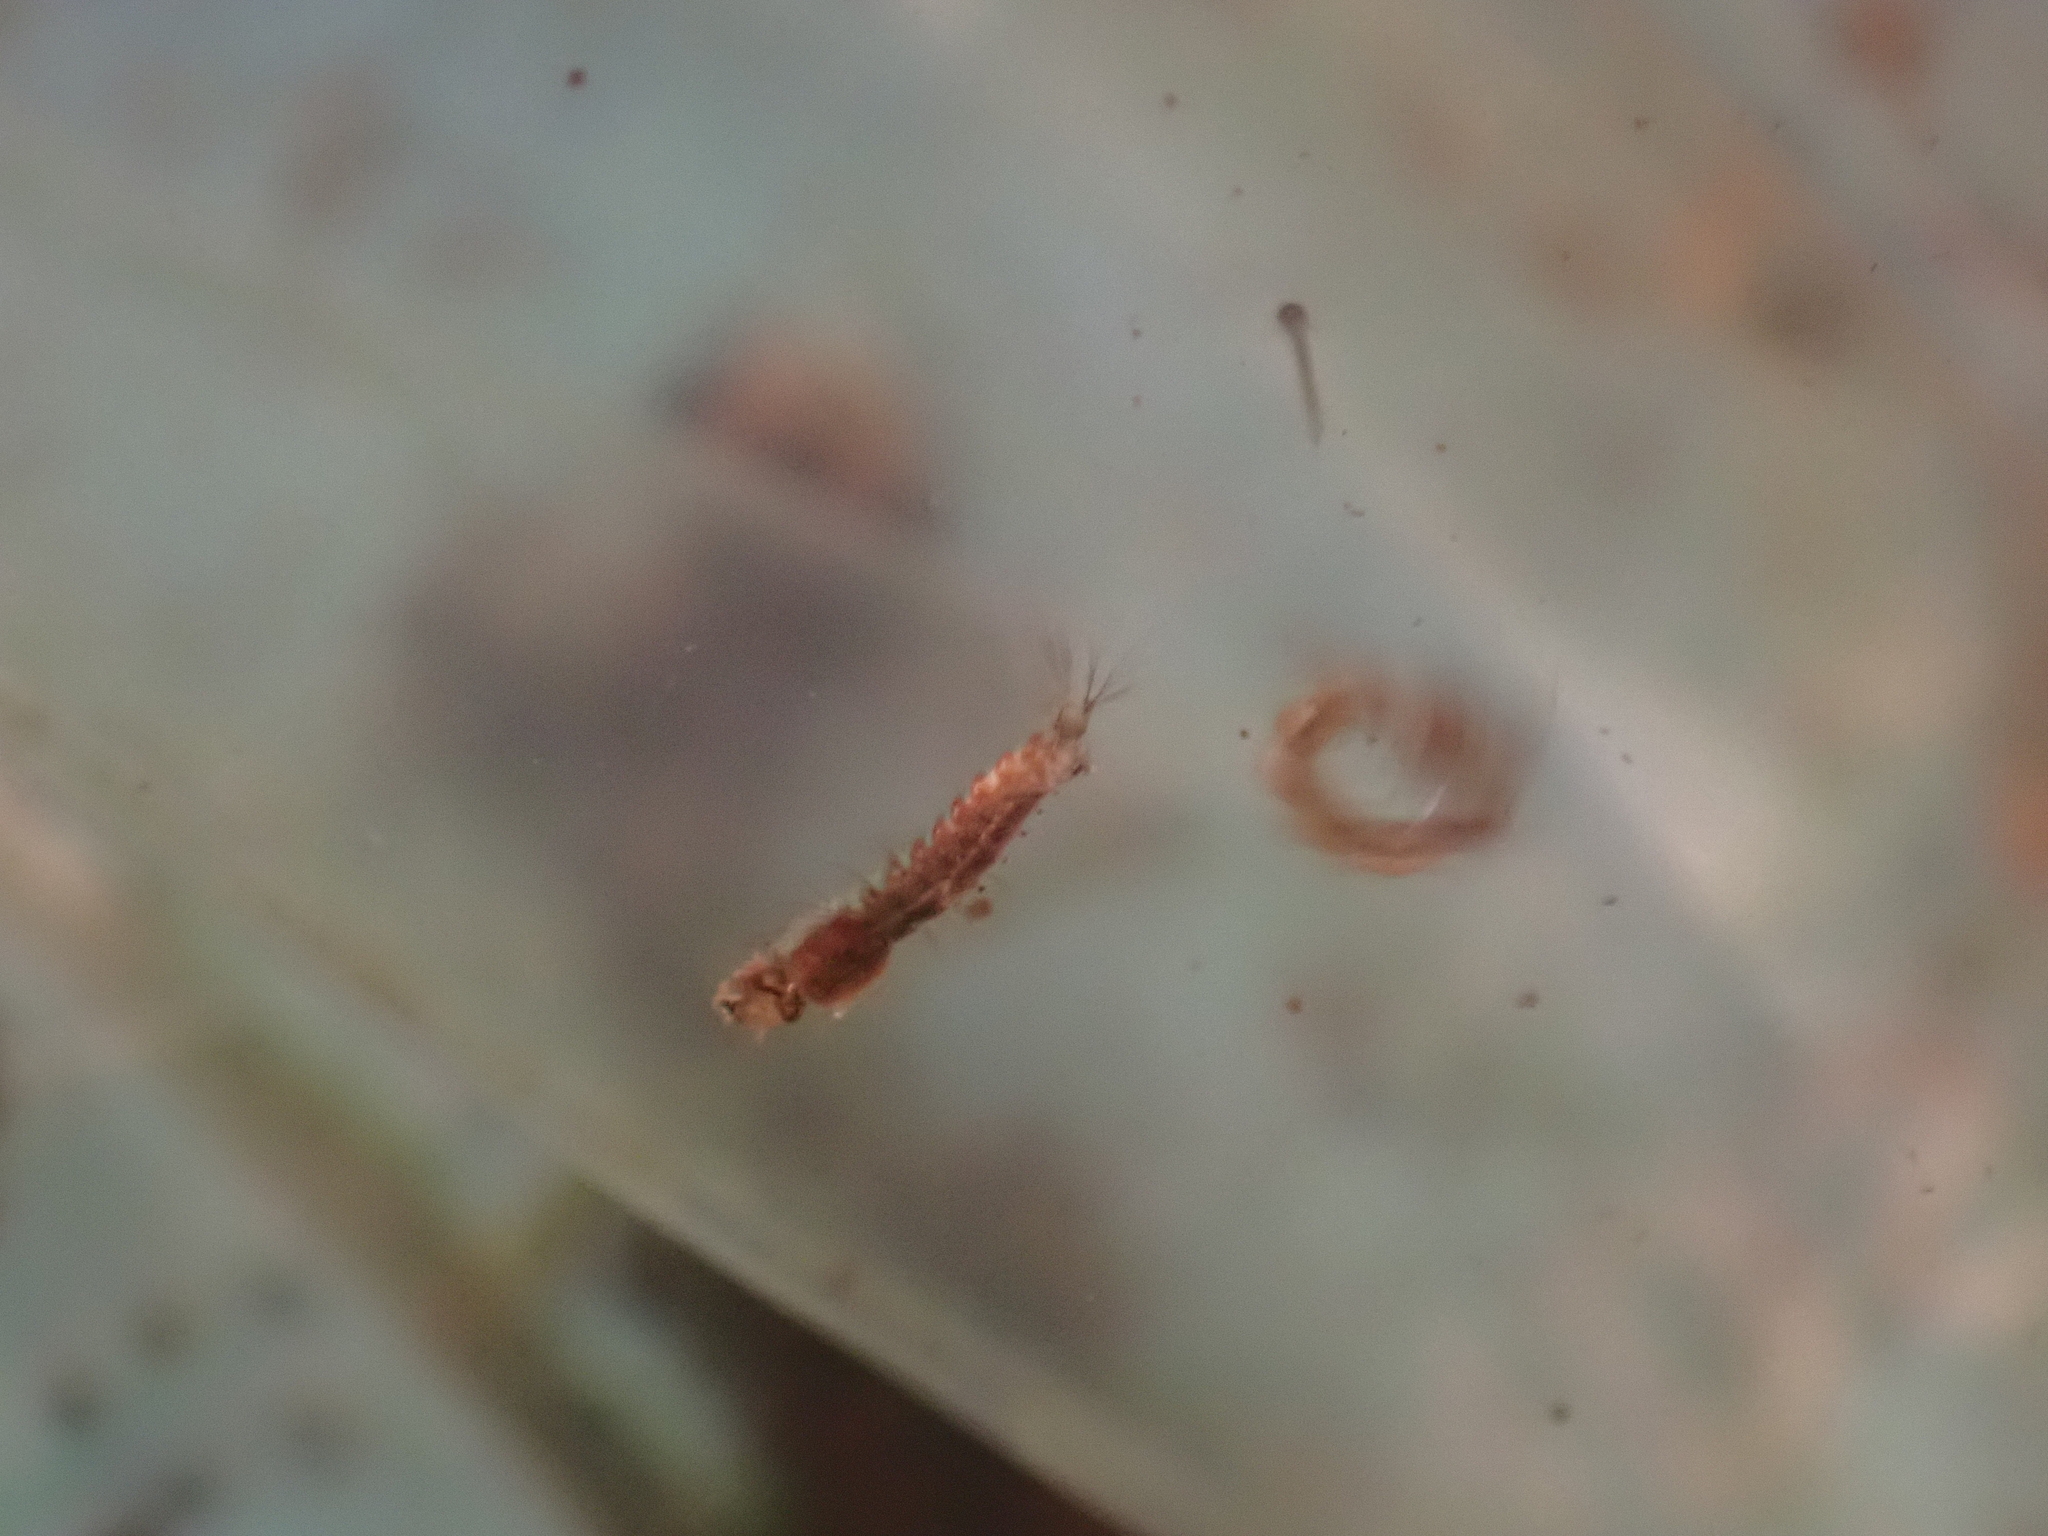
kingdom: Animalia
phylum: Arthropoda
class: Insecta
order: Diptera
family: Culicidae
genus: Toxorhynchites
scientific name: Toxorhynchites rutilus
